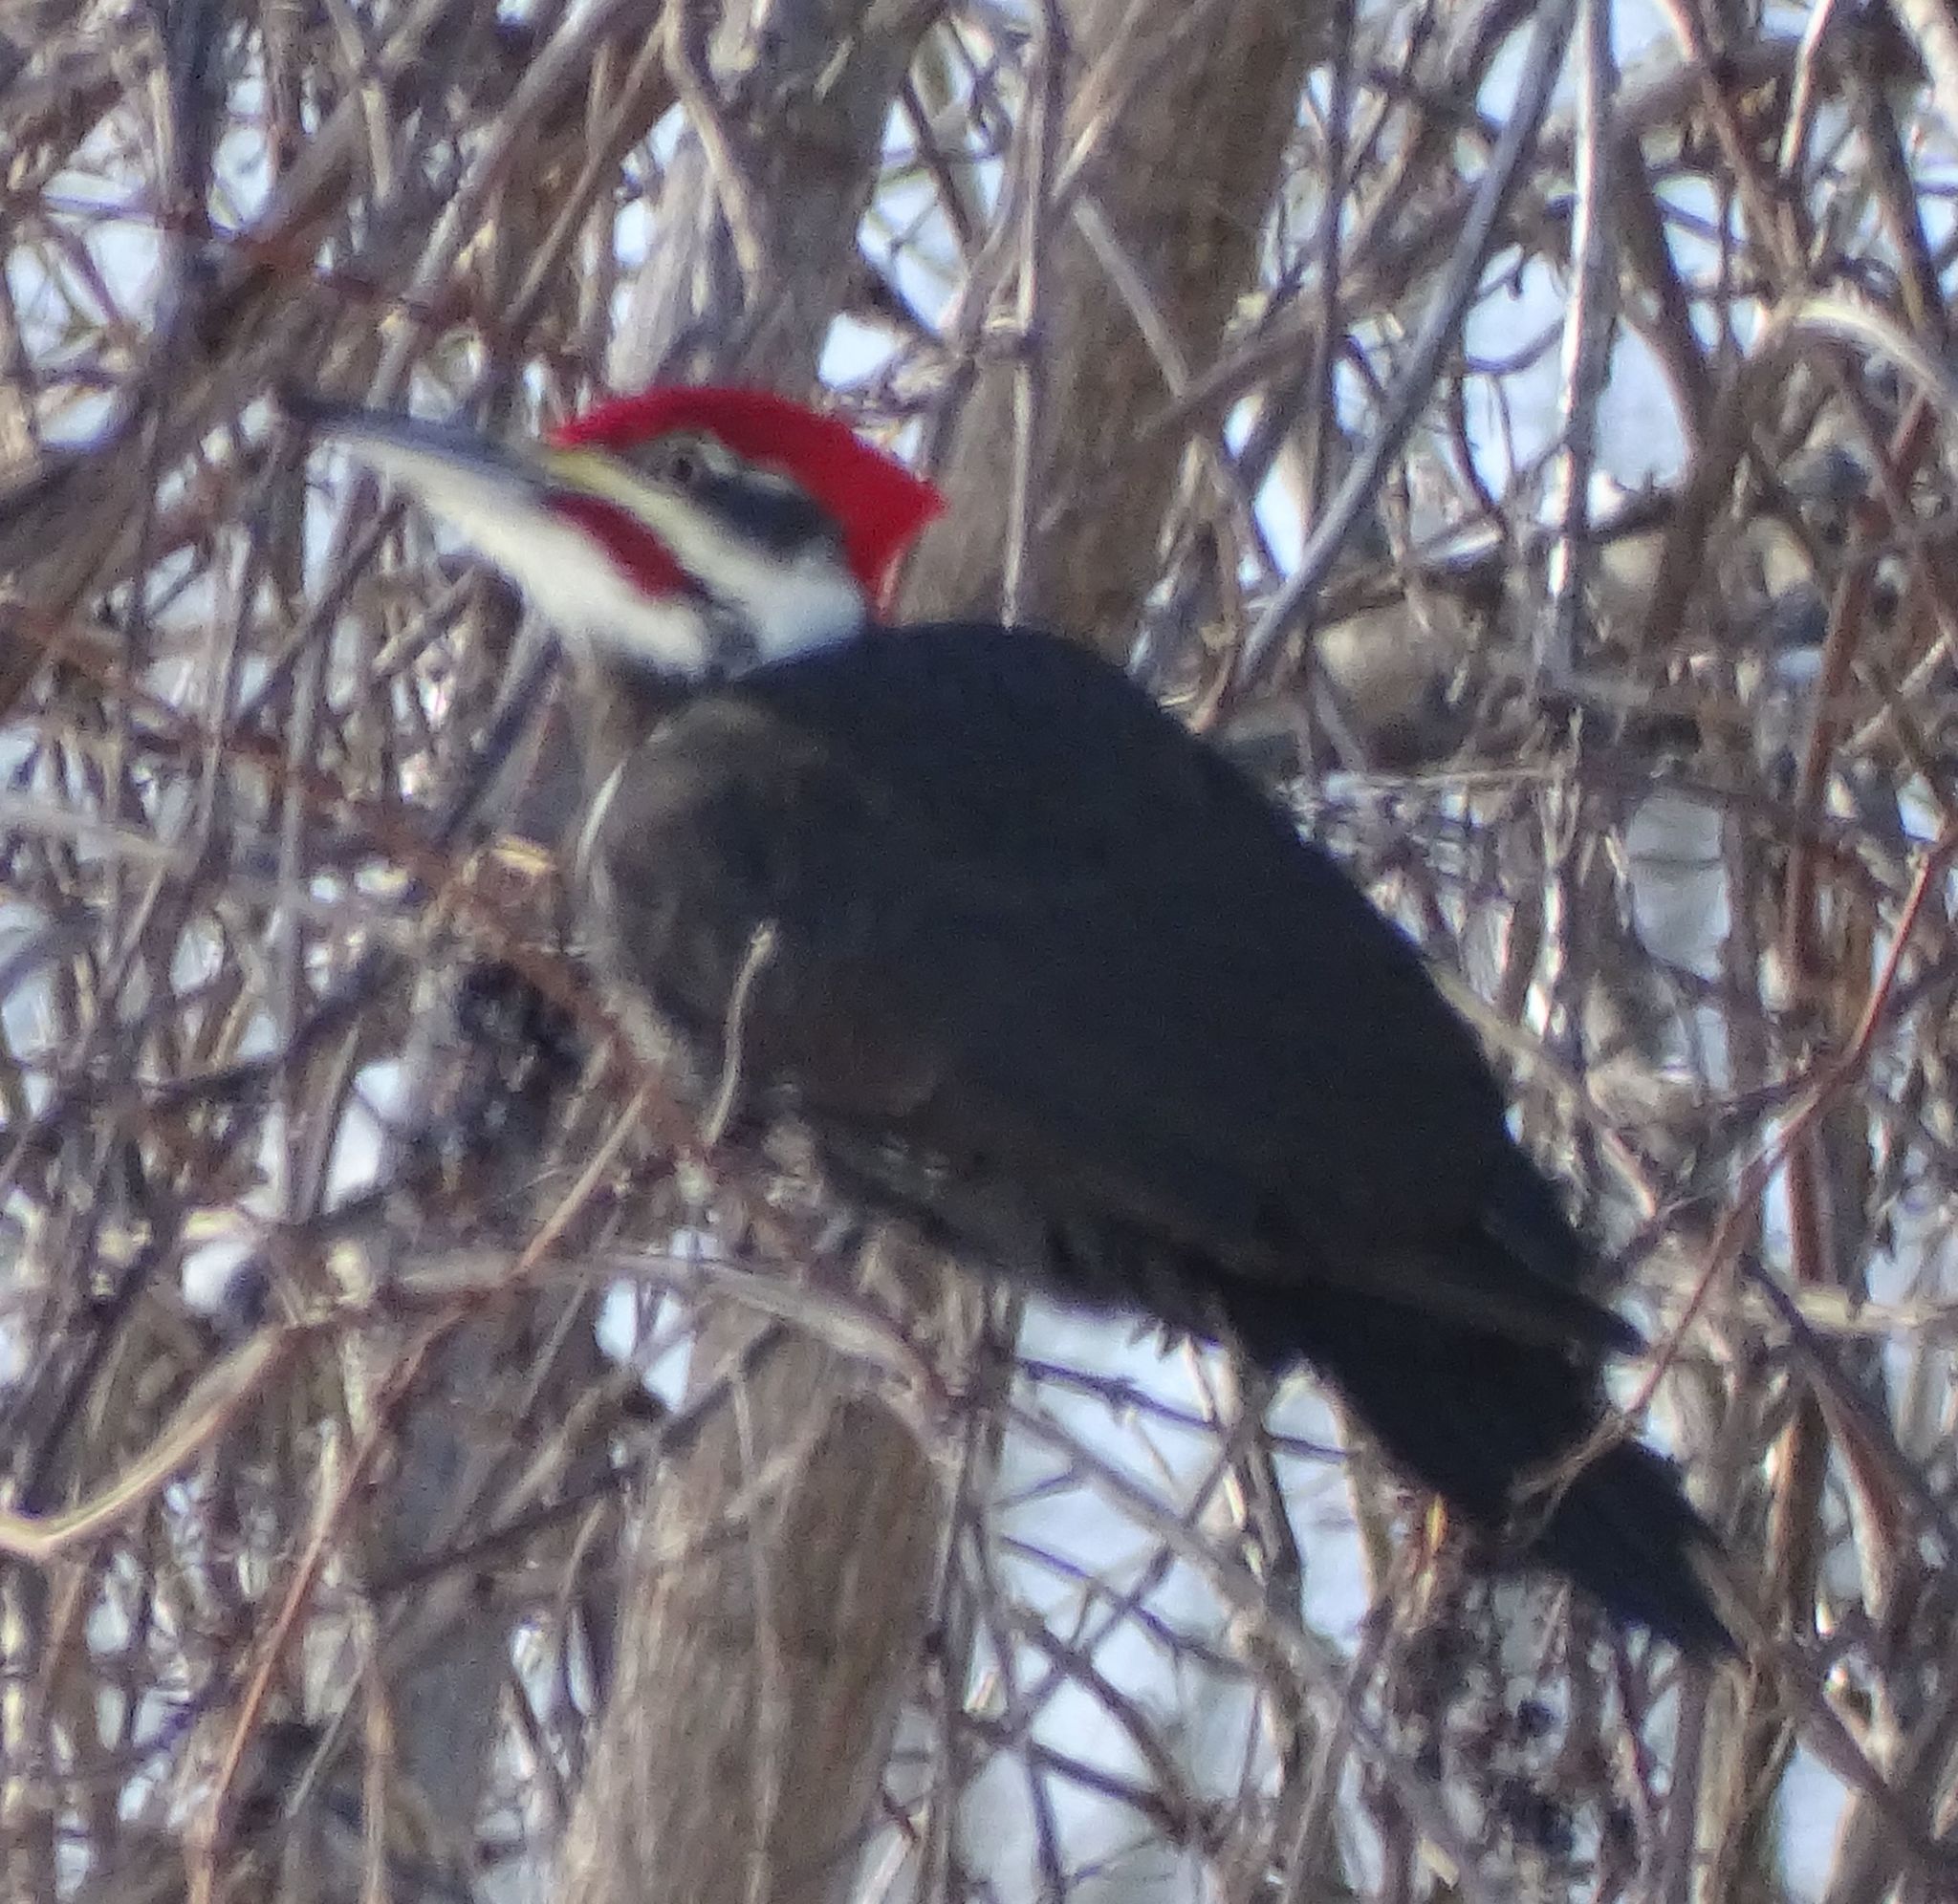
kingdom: Animalia
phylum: Chordata
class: Aves
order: Piciformes
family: Picidae
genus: Dryocopus
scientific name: Dryocopus pileatus
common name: Pileated woodpecker
